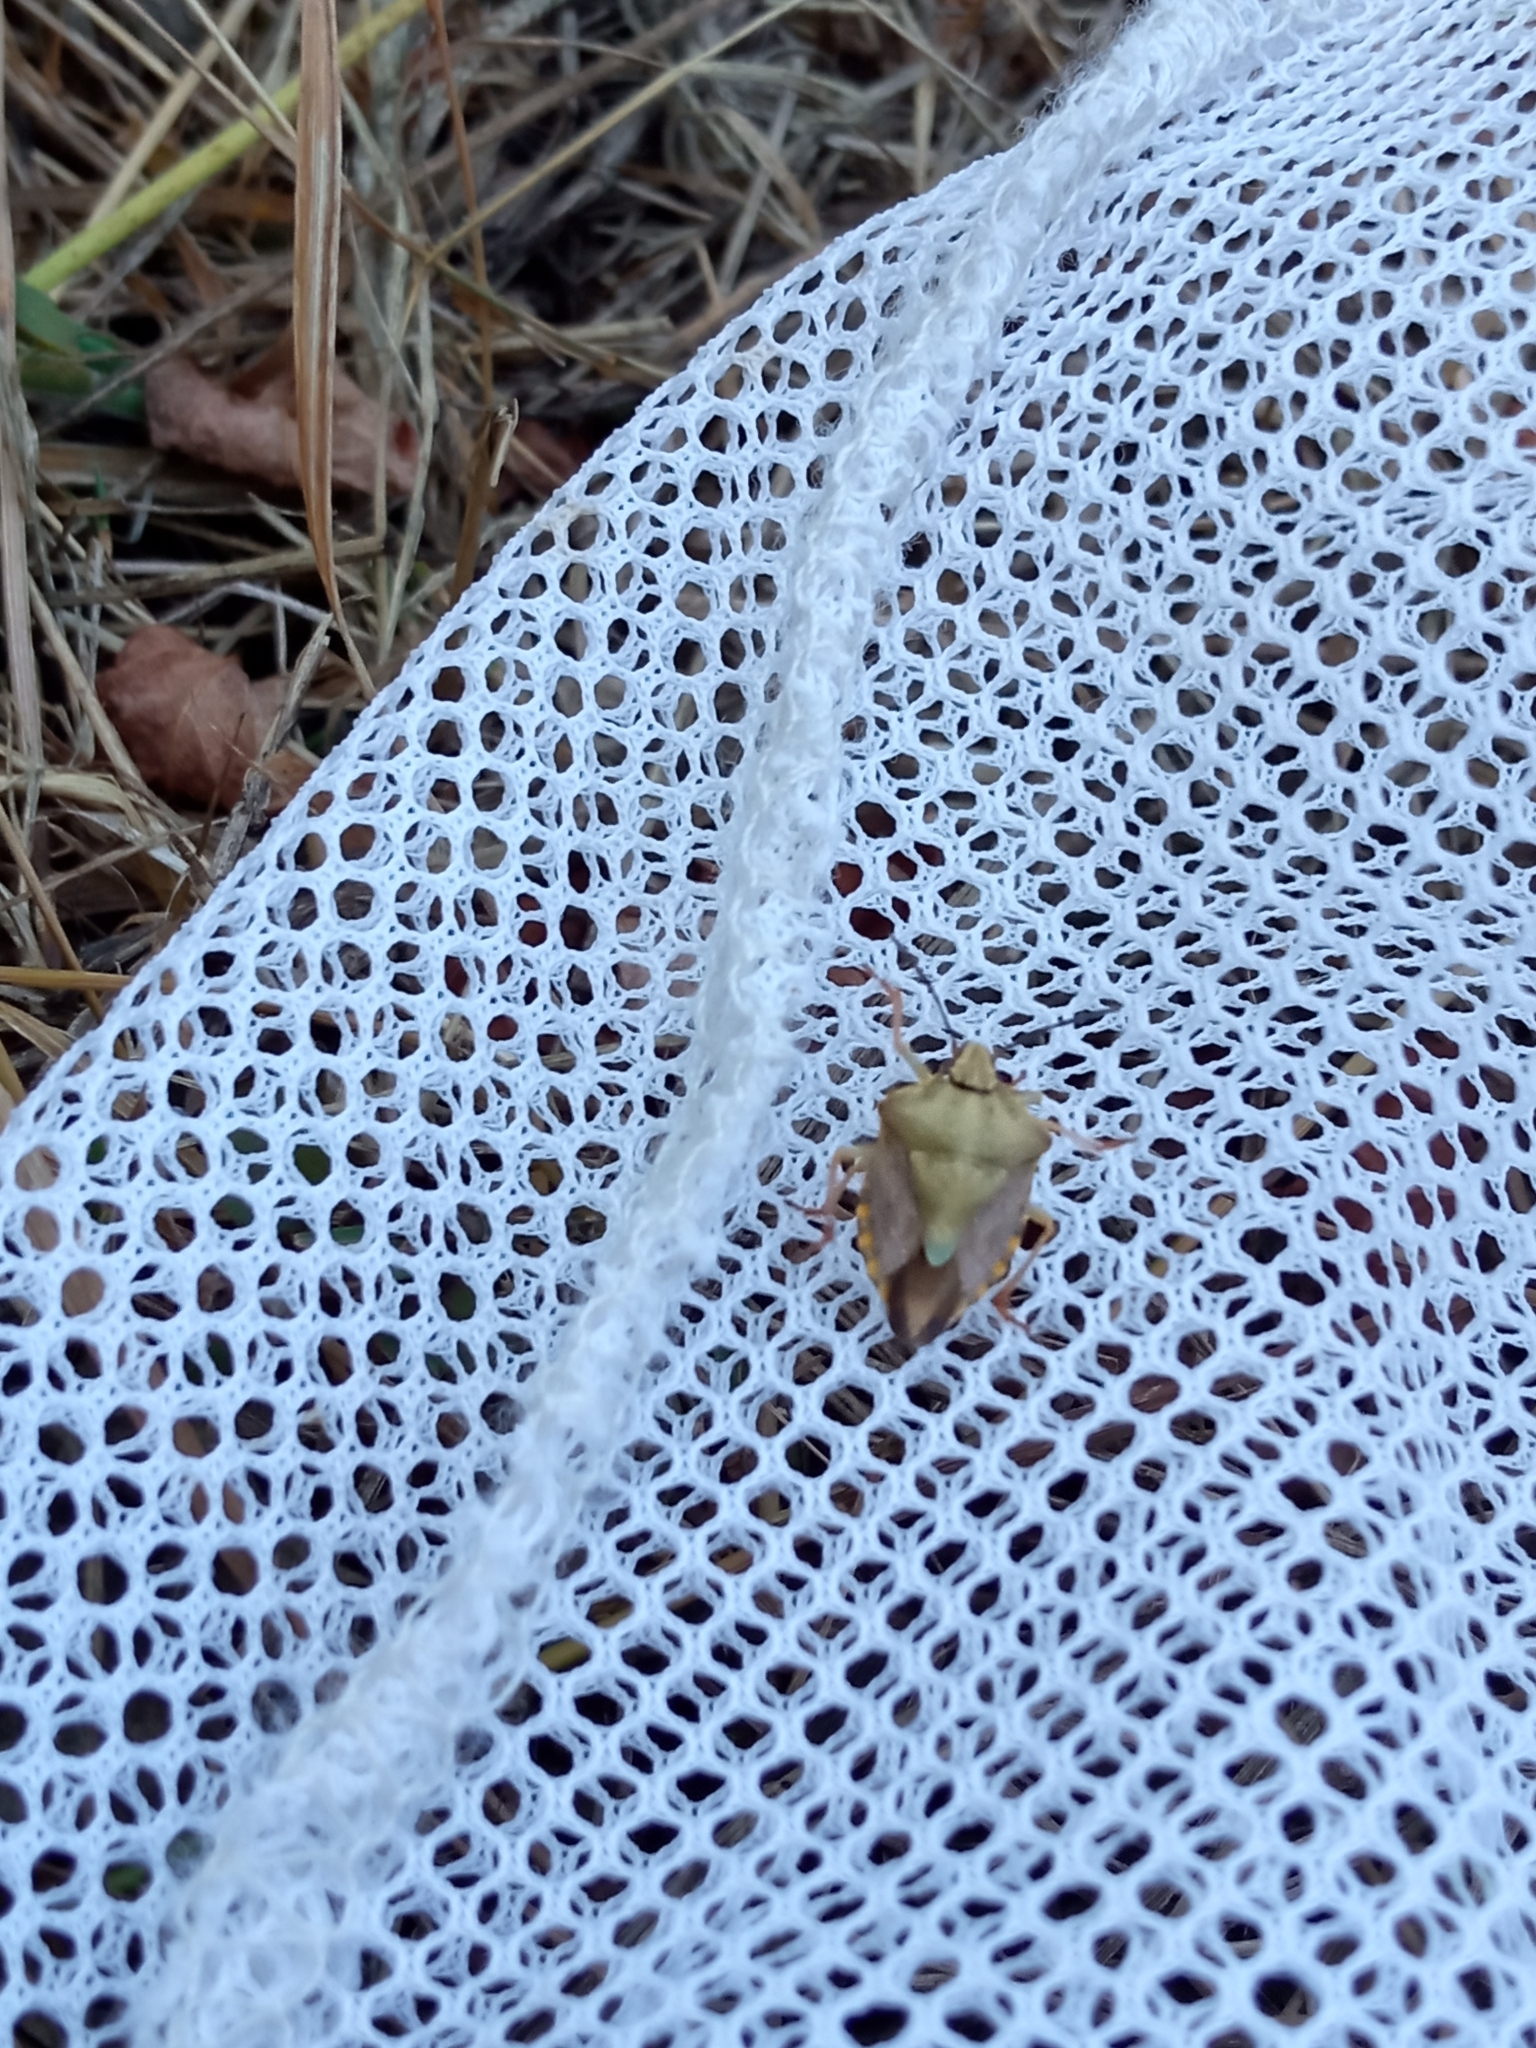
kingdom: Animalia
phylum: Arthropoda
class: Insecta
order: Hemiptera
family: Pentatomidae
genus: Carpocoris
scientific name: Carpocoris purpureipennis
